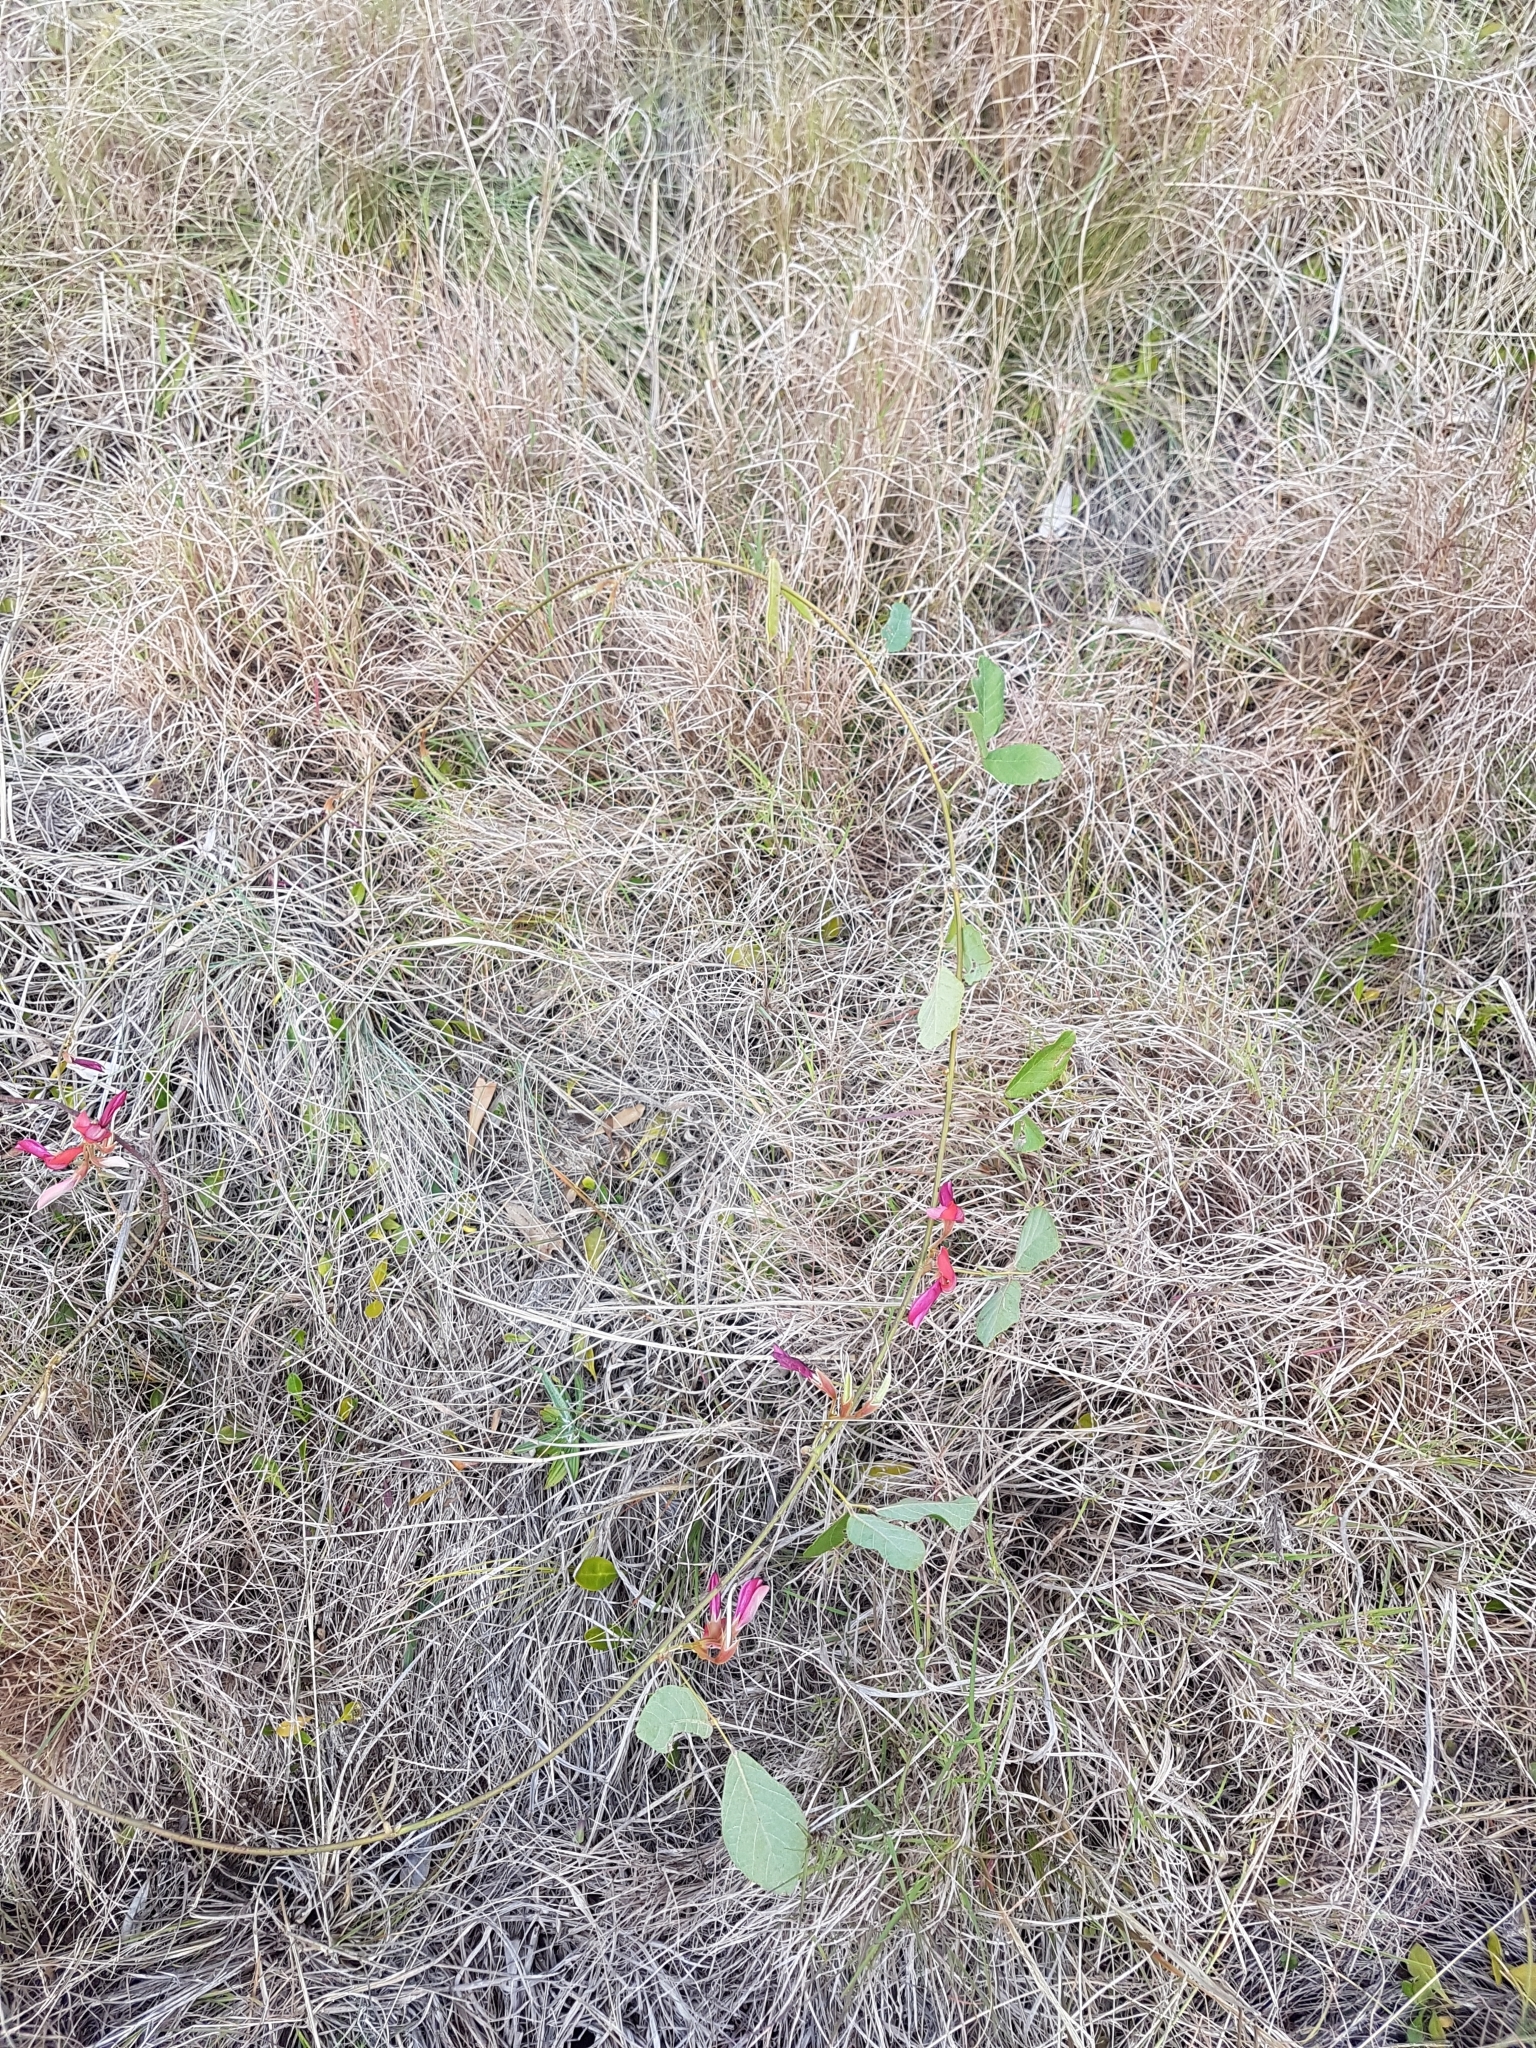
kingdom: Plantae
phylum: Tracheophyta
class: Magnoliopsida
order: Fabales
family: Fabaceae
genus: Kennedia
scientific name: Kennedia rubicunda
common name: Red kennedy-pea
